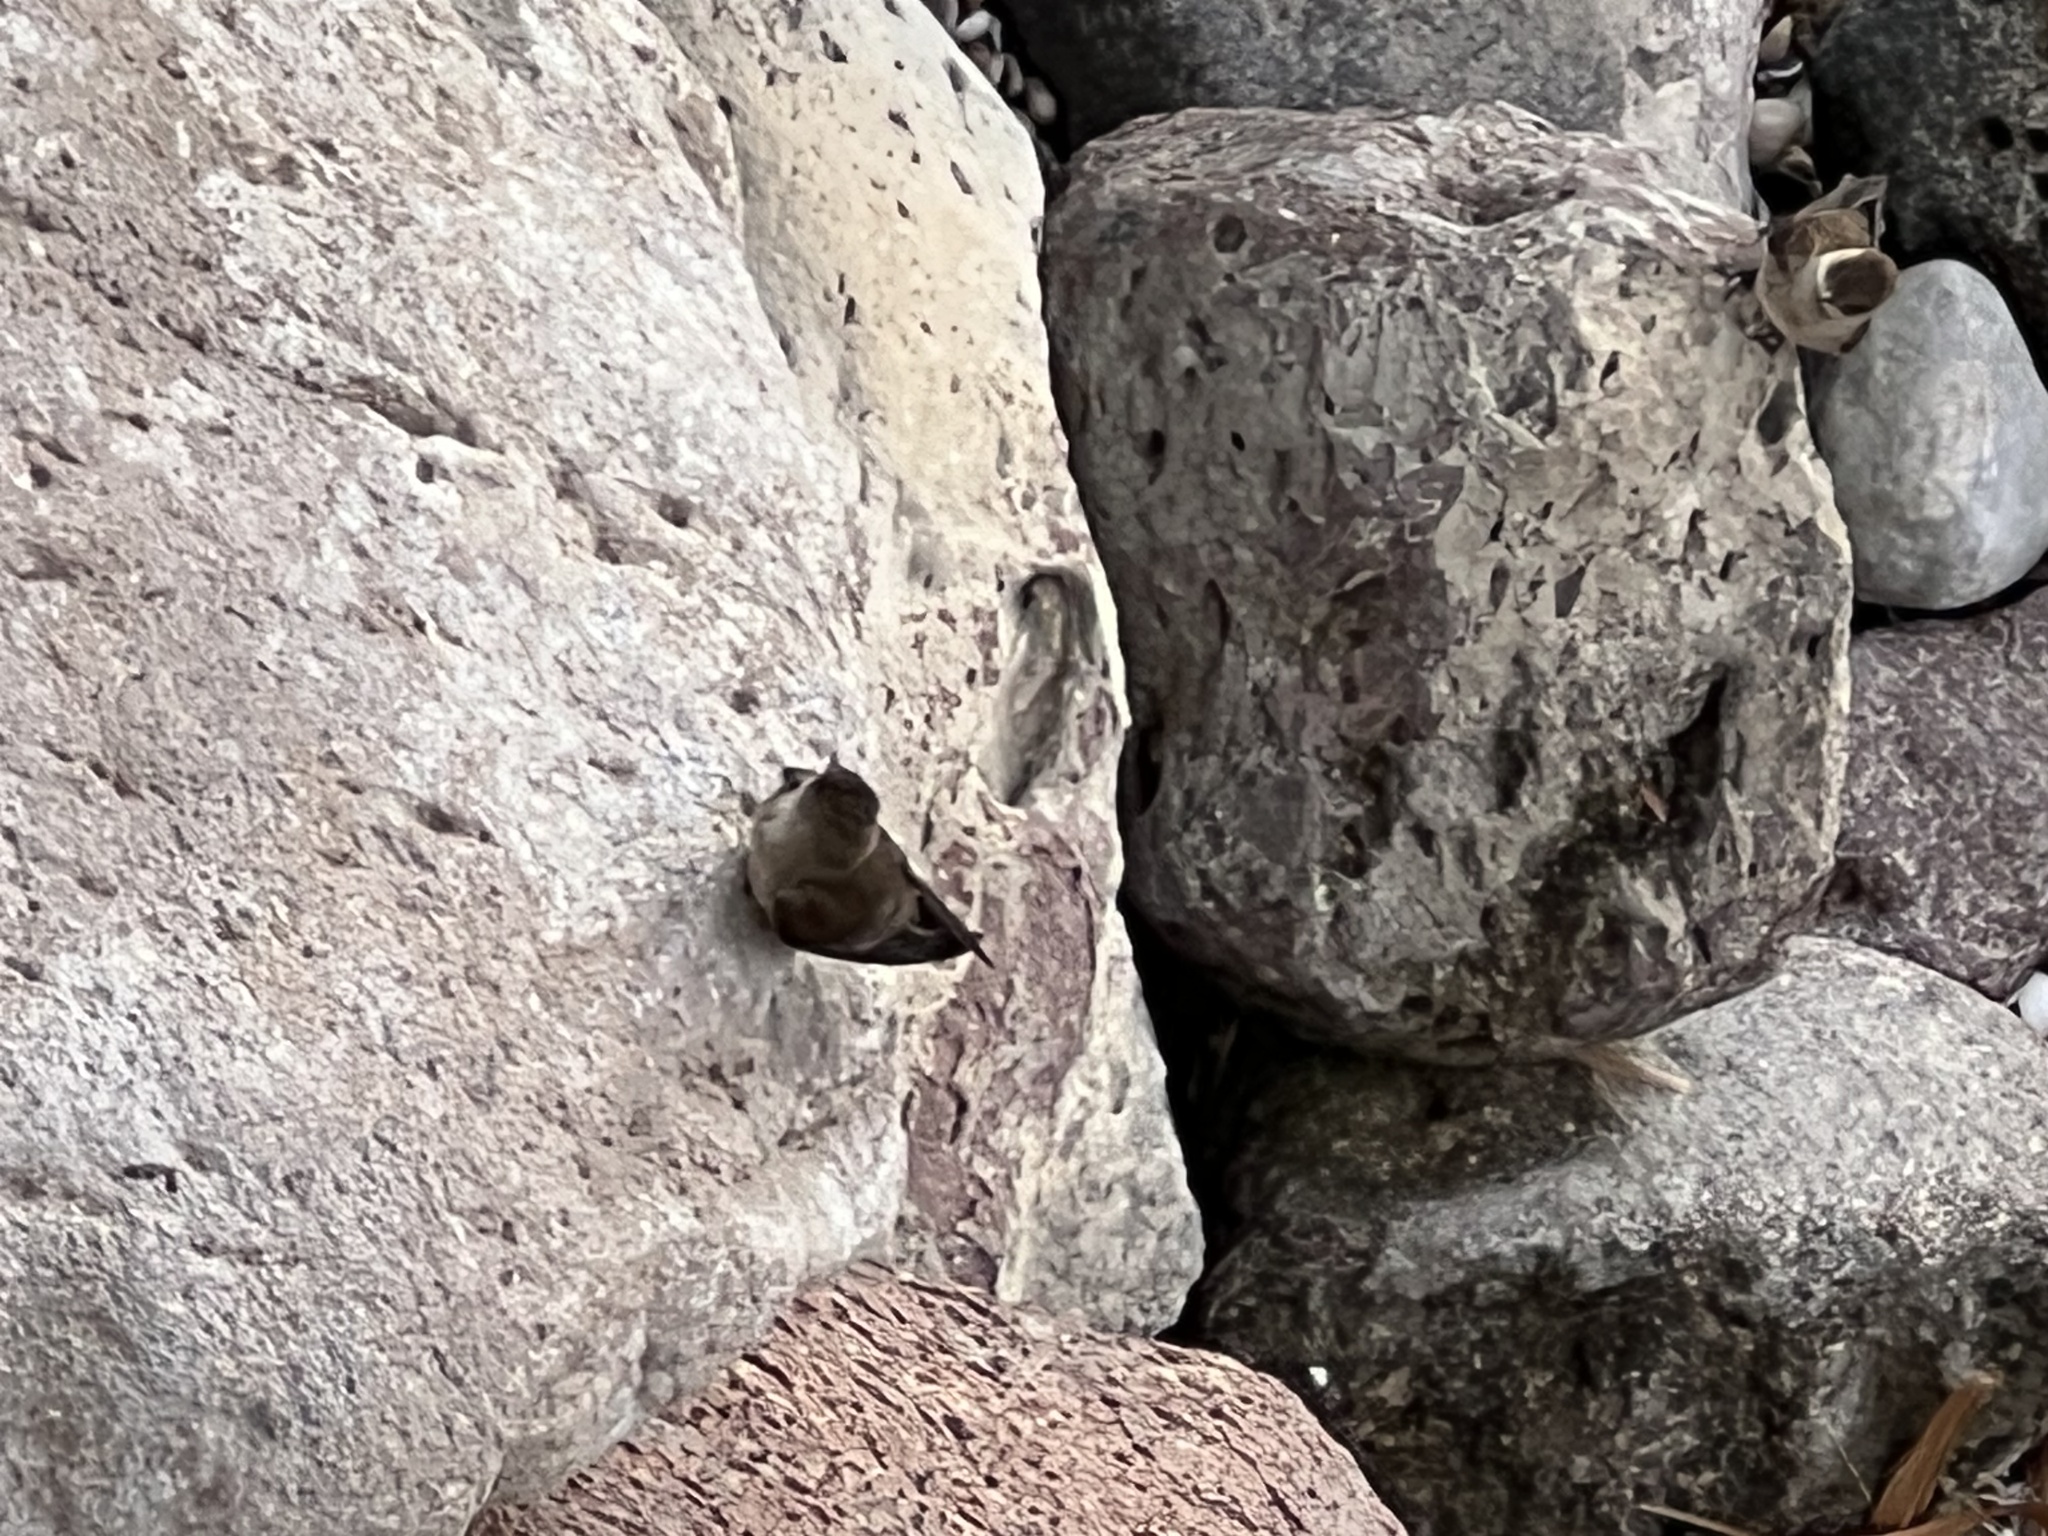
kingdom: Animalia
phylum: Chordata
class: Aves
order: Passeriformes
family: Hirundinidae
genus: Stelgidopteryx
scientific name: Stelgidopteryx serripennis
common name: Northern rough-winged swallow
